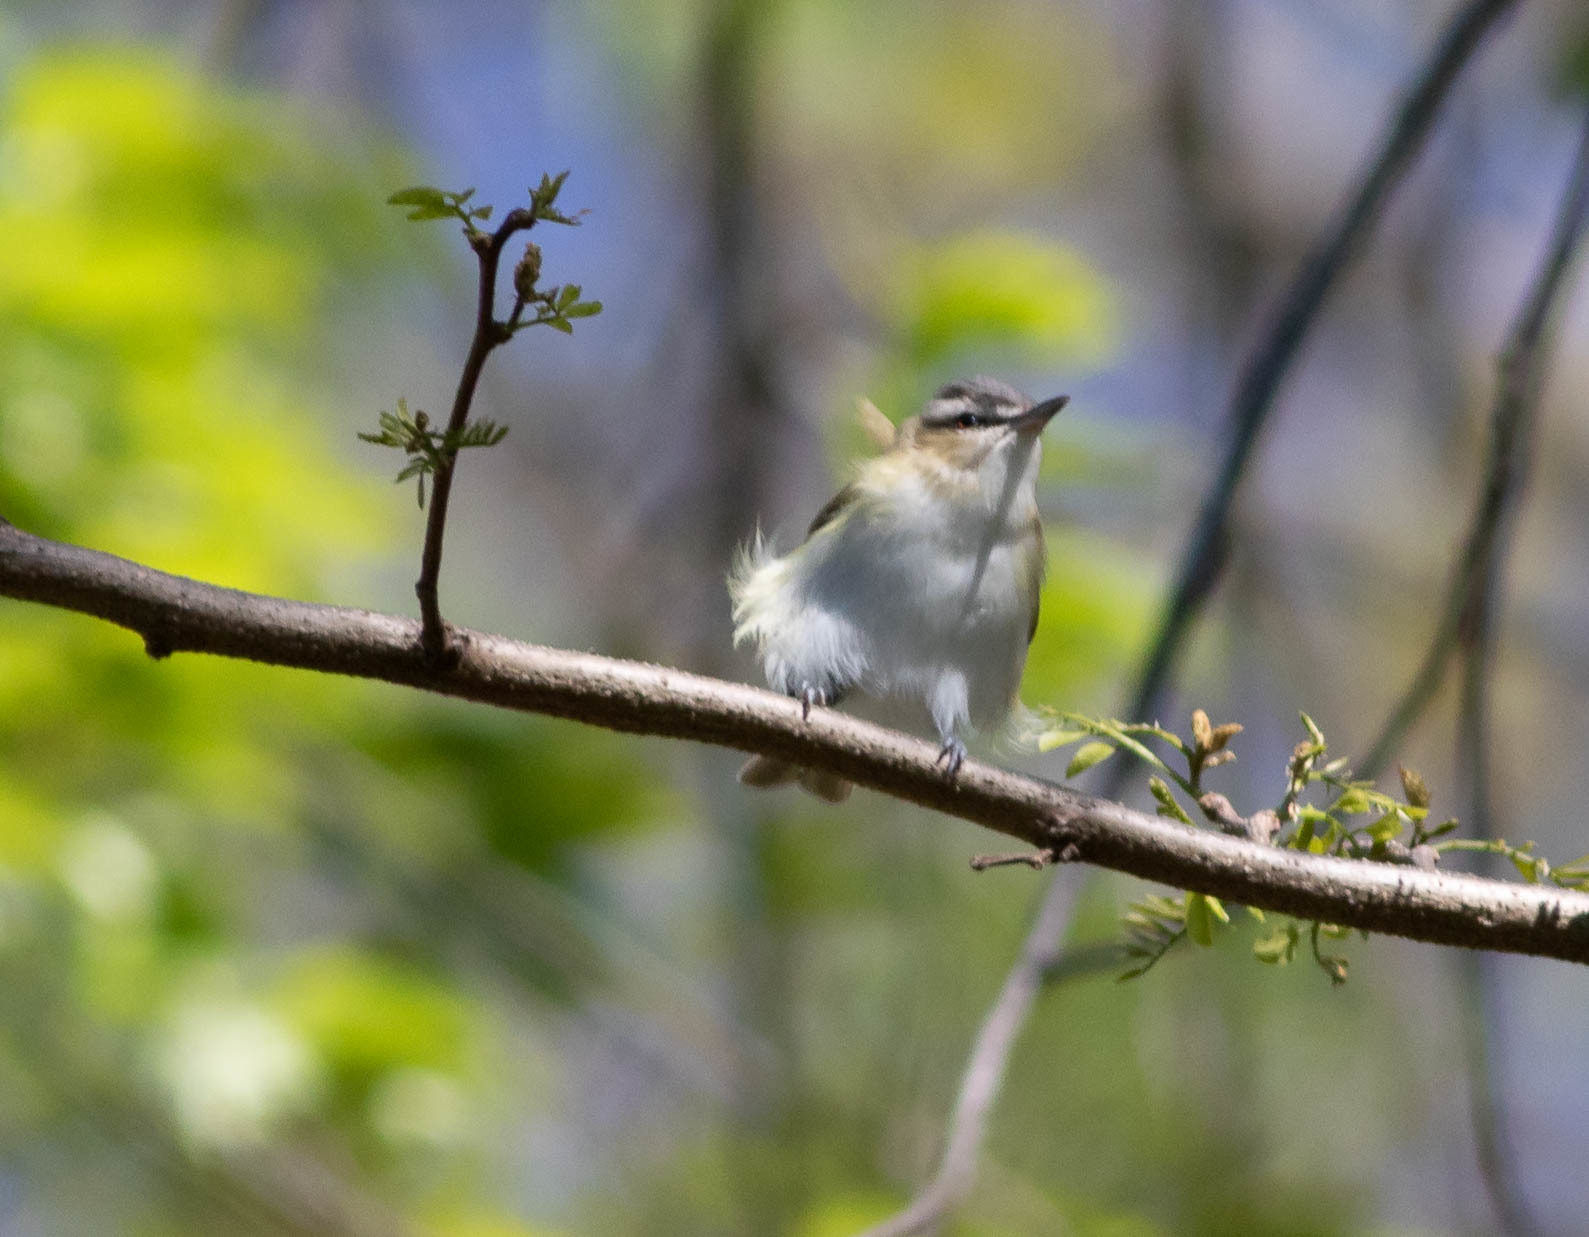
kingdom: Animalia
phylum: Chordata
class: Aves
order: Passeriformes
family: Vireonidae
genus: Vireo
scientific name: Vireo olivaceus
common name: Red-eyed vireo
